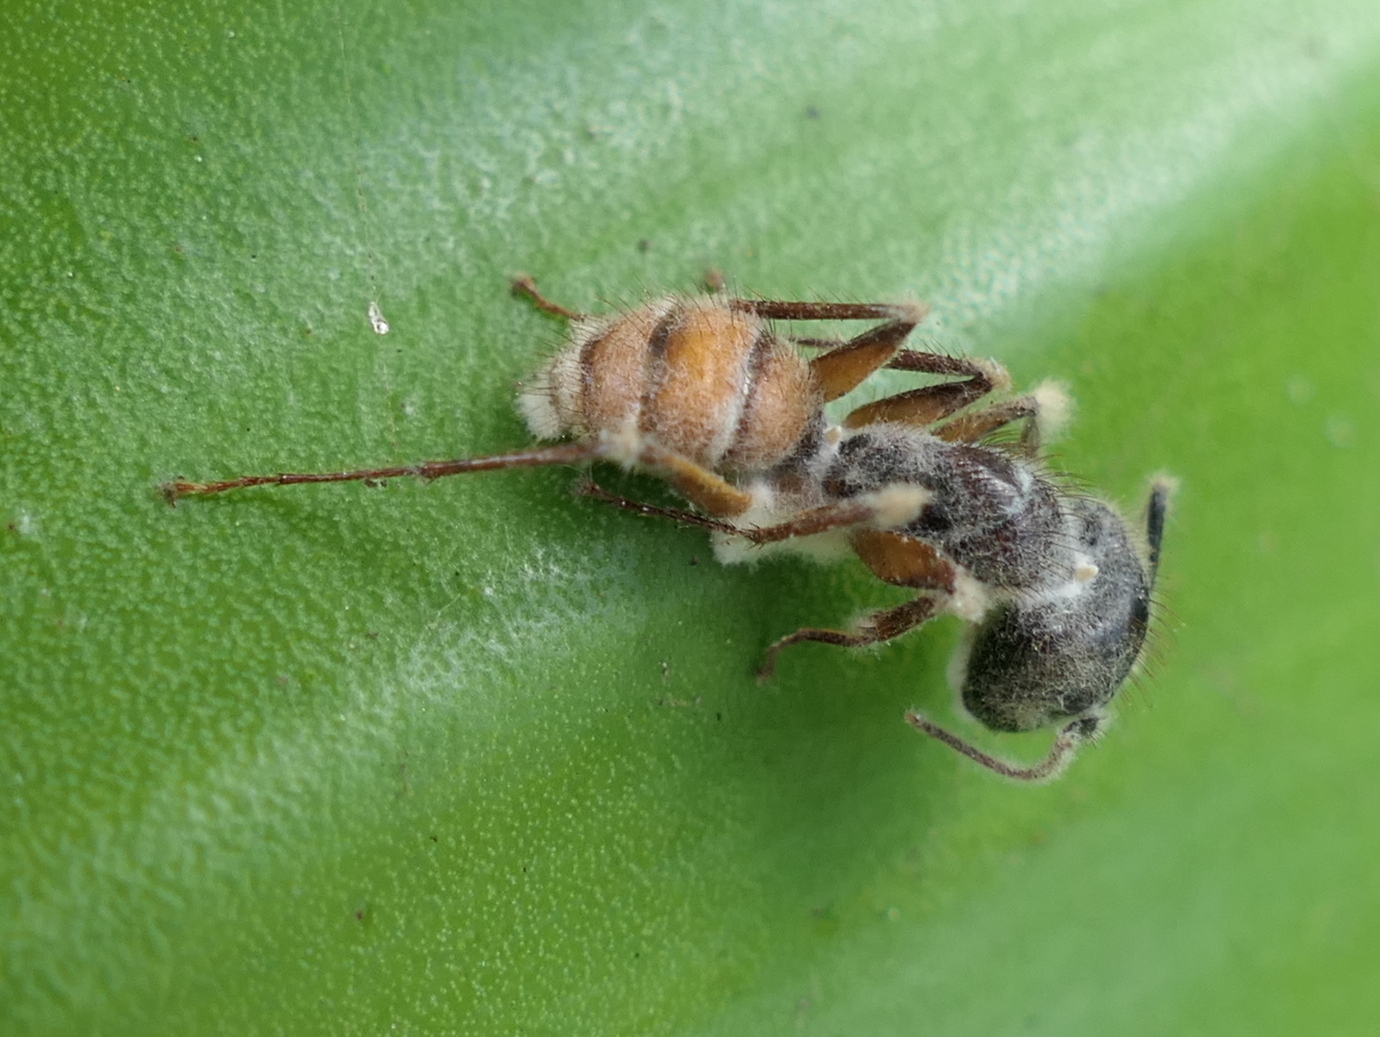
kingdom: Animalia
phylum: Arthropoda
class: Insecta
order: Hymenoptera
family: Formicidae
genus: Camponotus
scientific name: Camponotus atriceps
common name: Florida carpenter ant
